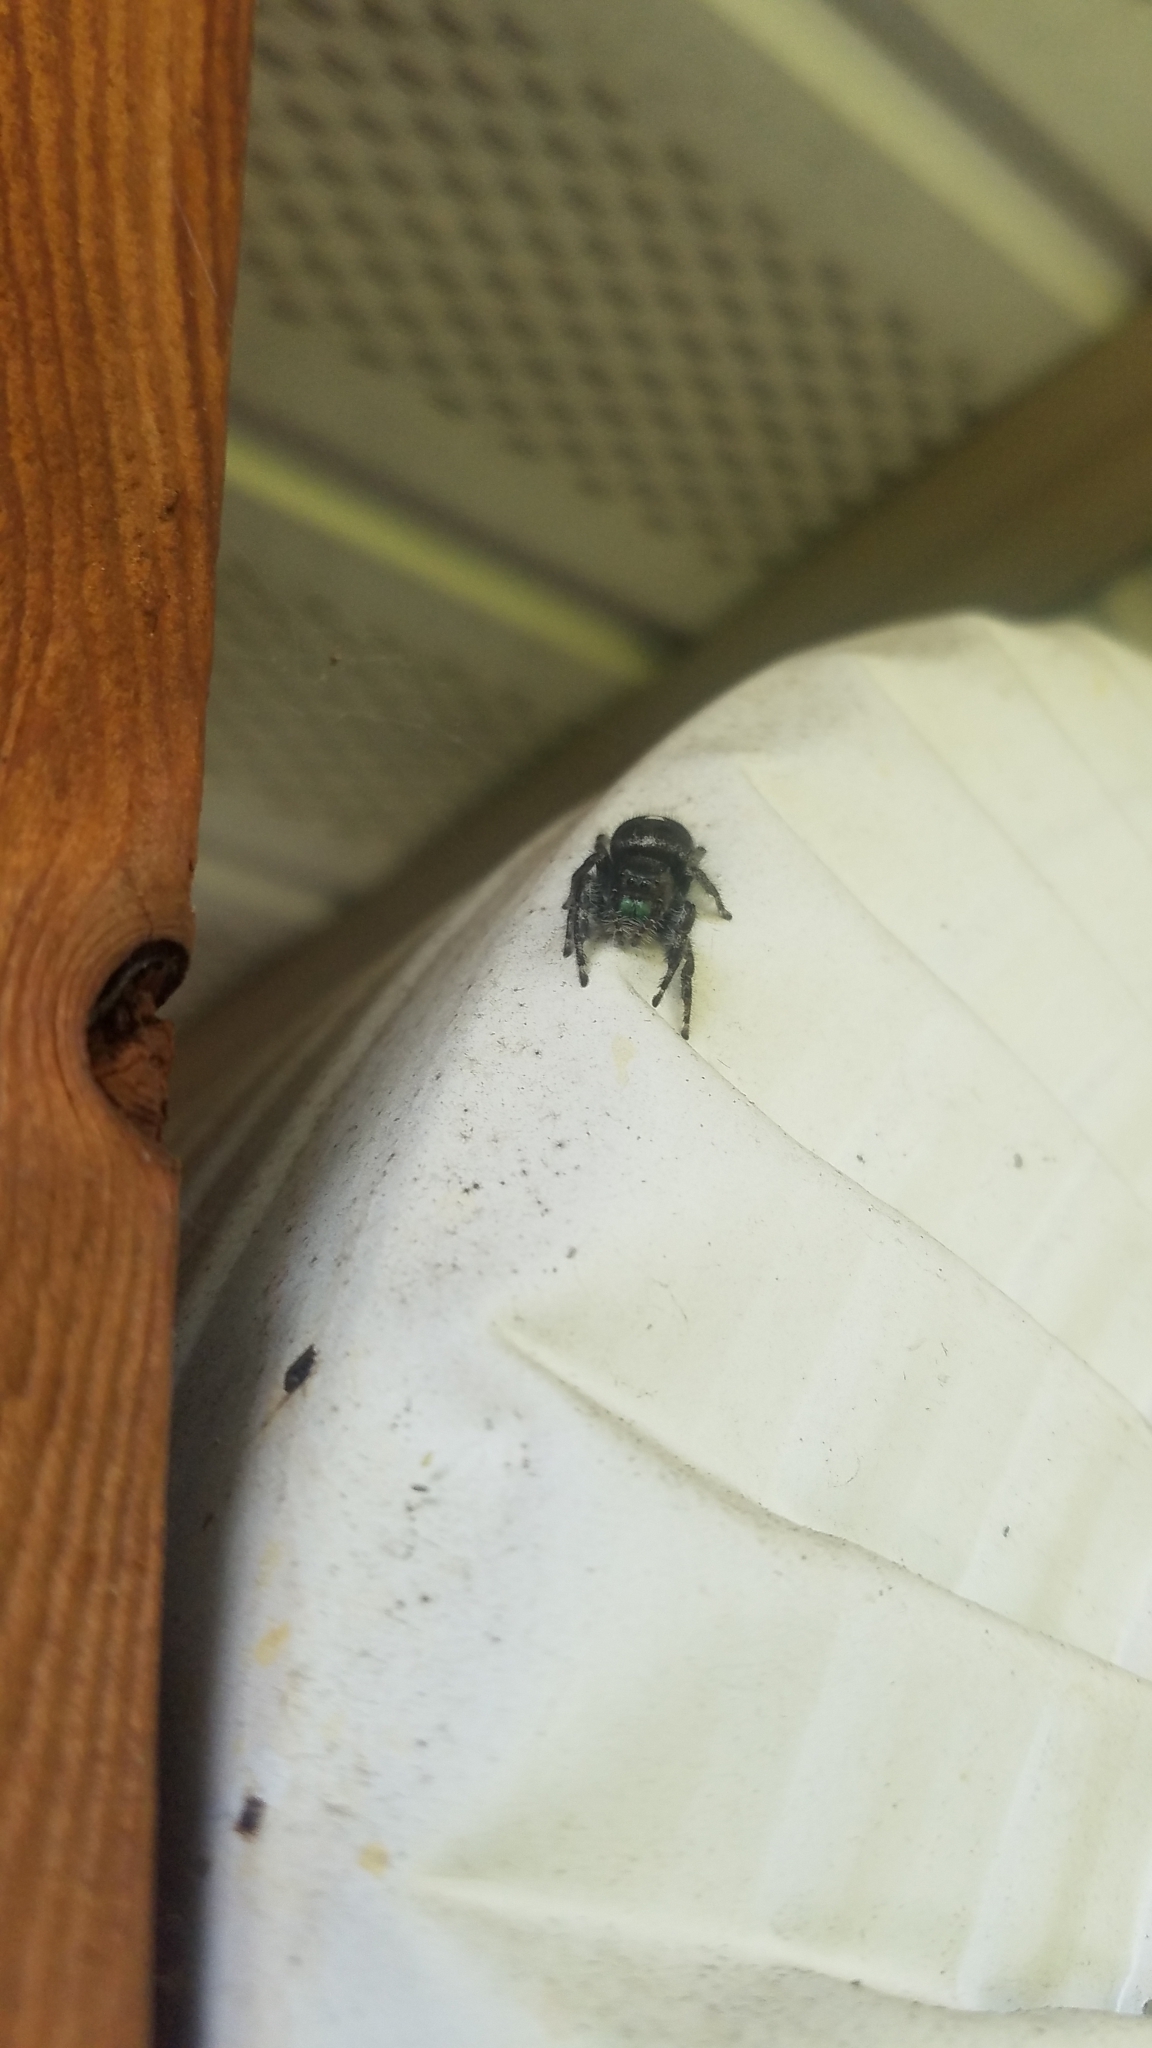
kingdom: Animalia
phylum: Arthropoda
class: Arachnida
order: Araneae
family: Salticidae
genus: Phidippus
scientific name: Phidippus audax
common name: Bold jumper
